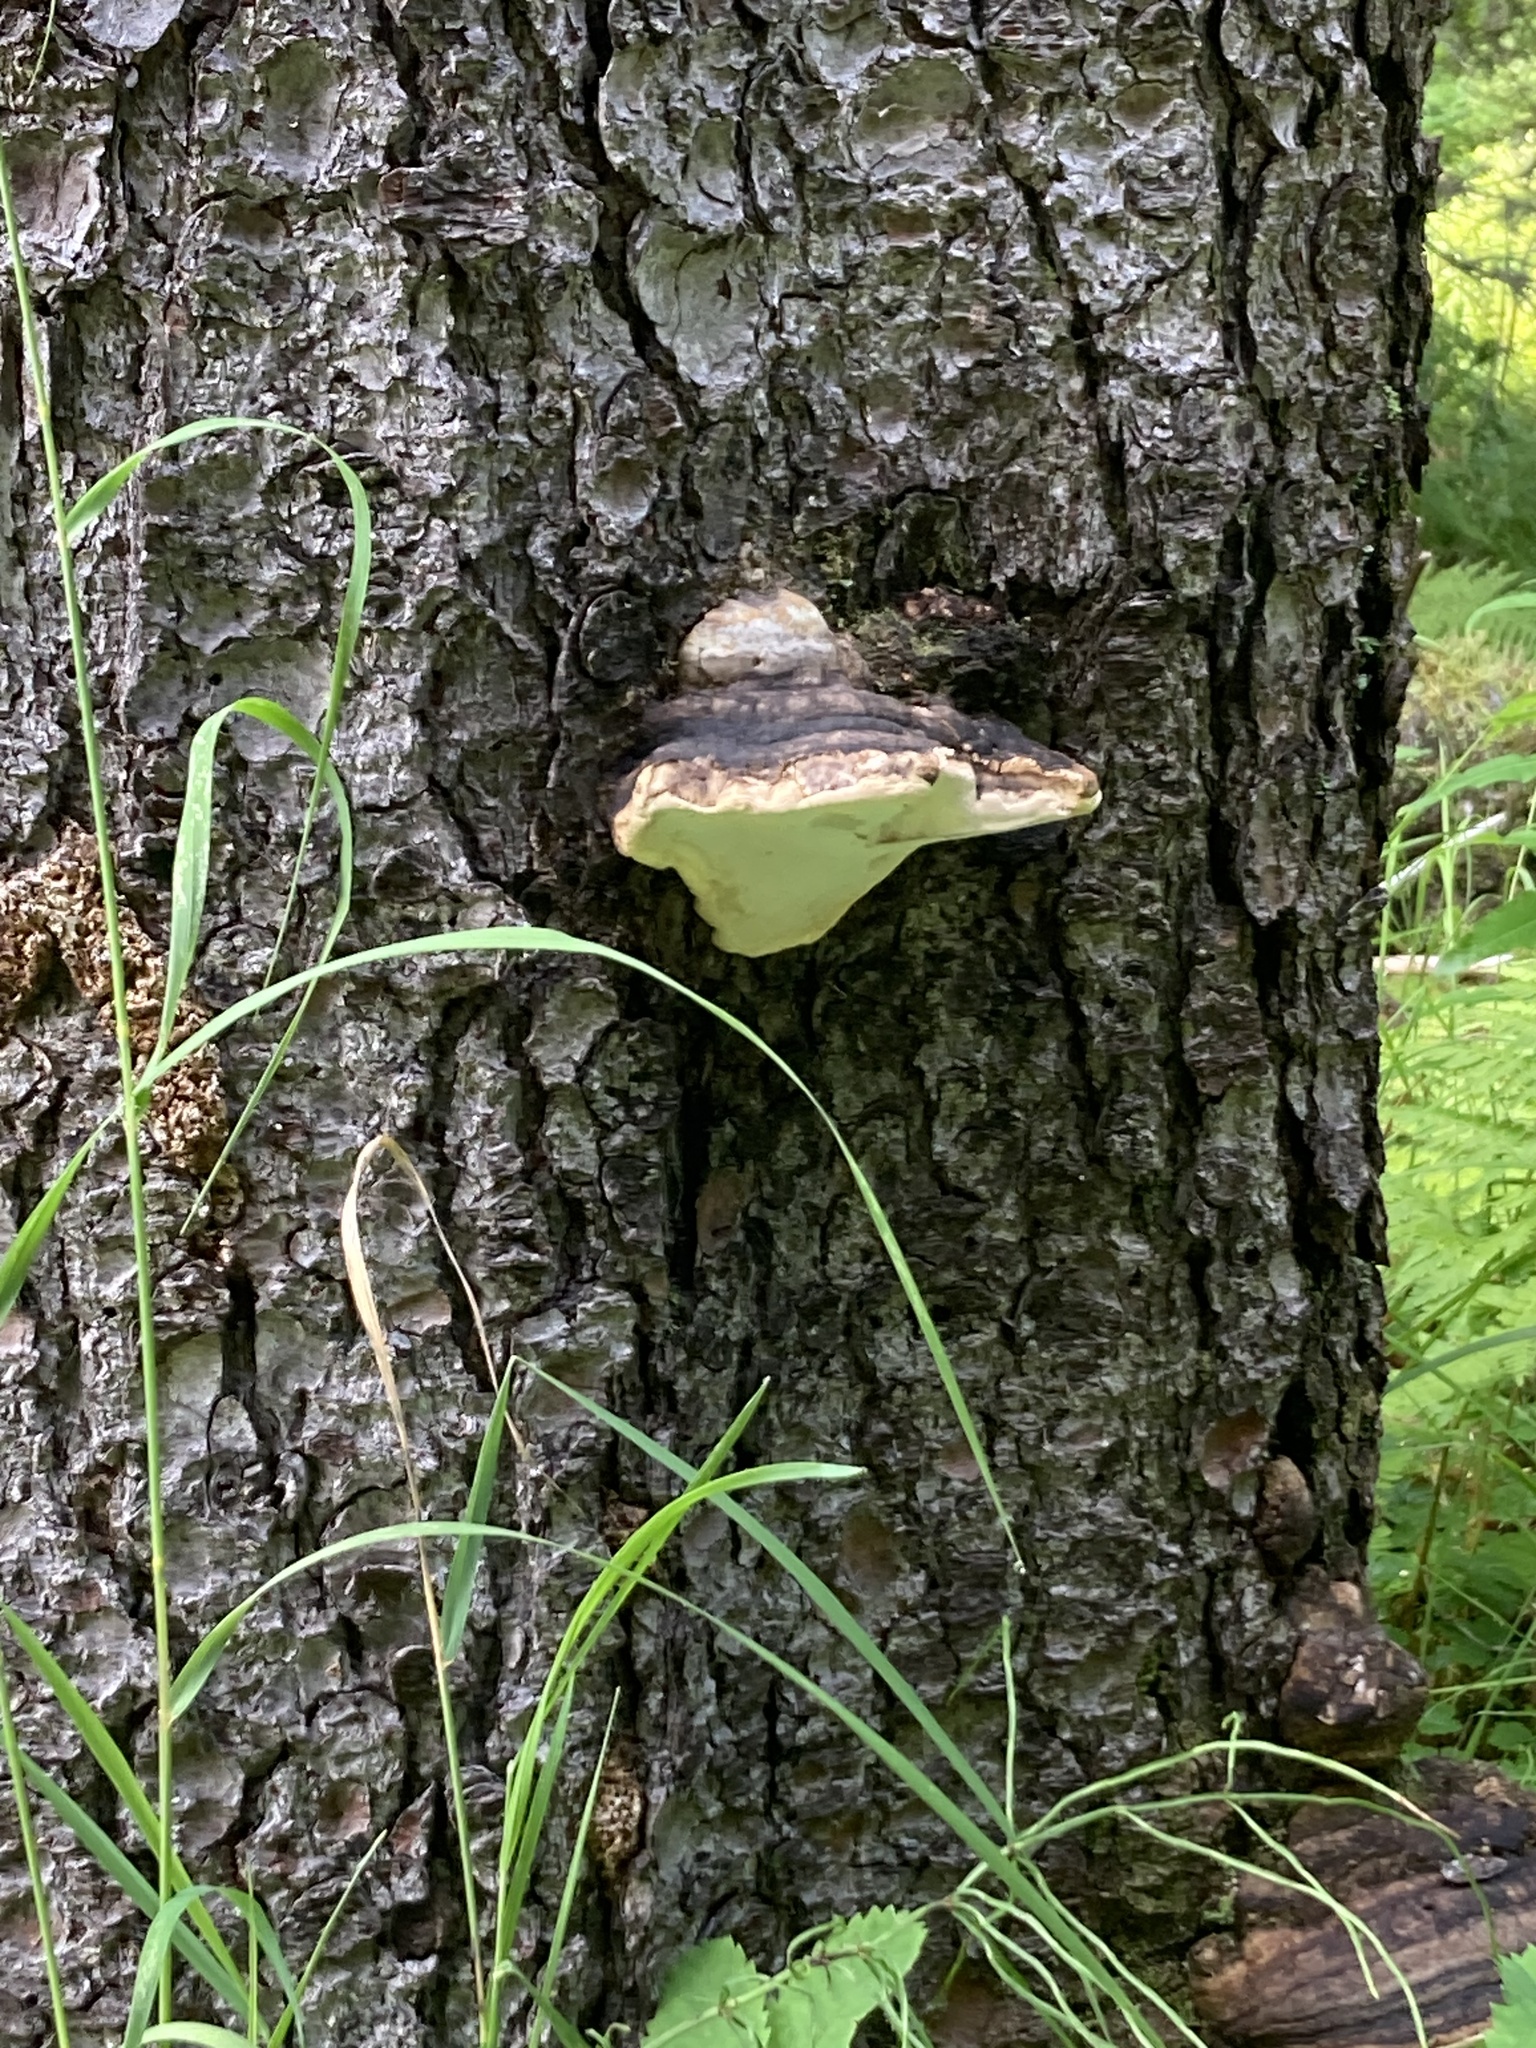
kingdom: Fungi
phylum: Basidiomycota
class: Agaricomycetes
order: Polyporales
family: Fomitopsidaceae
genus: Fomitopsis
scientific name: Fomitopsis ochracea
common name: American brown fomitopsis
